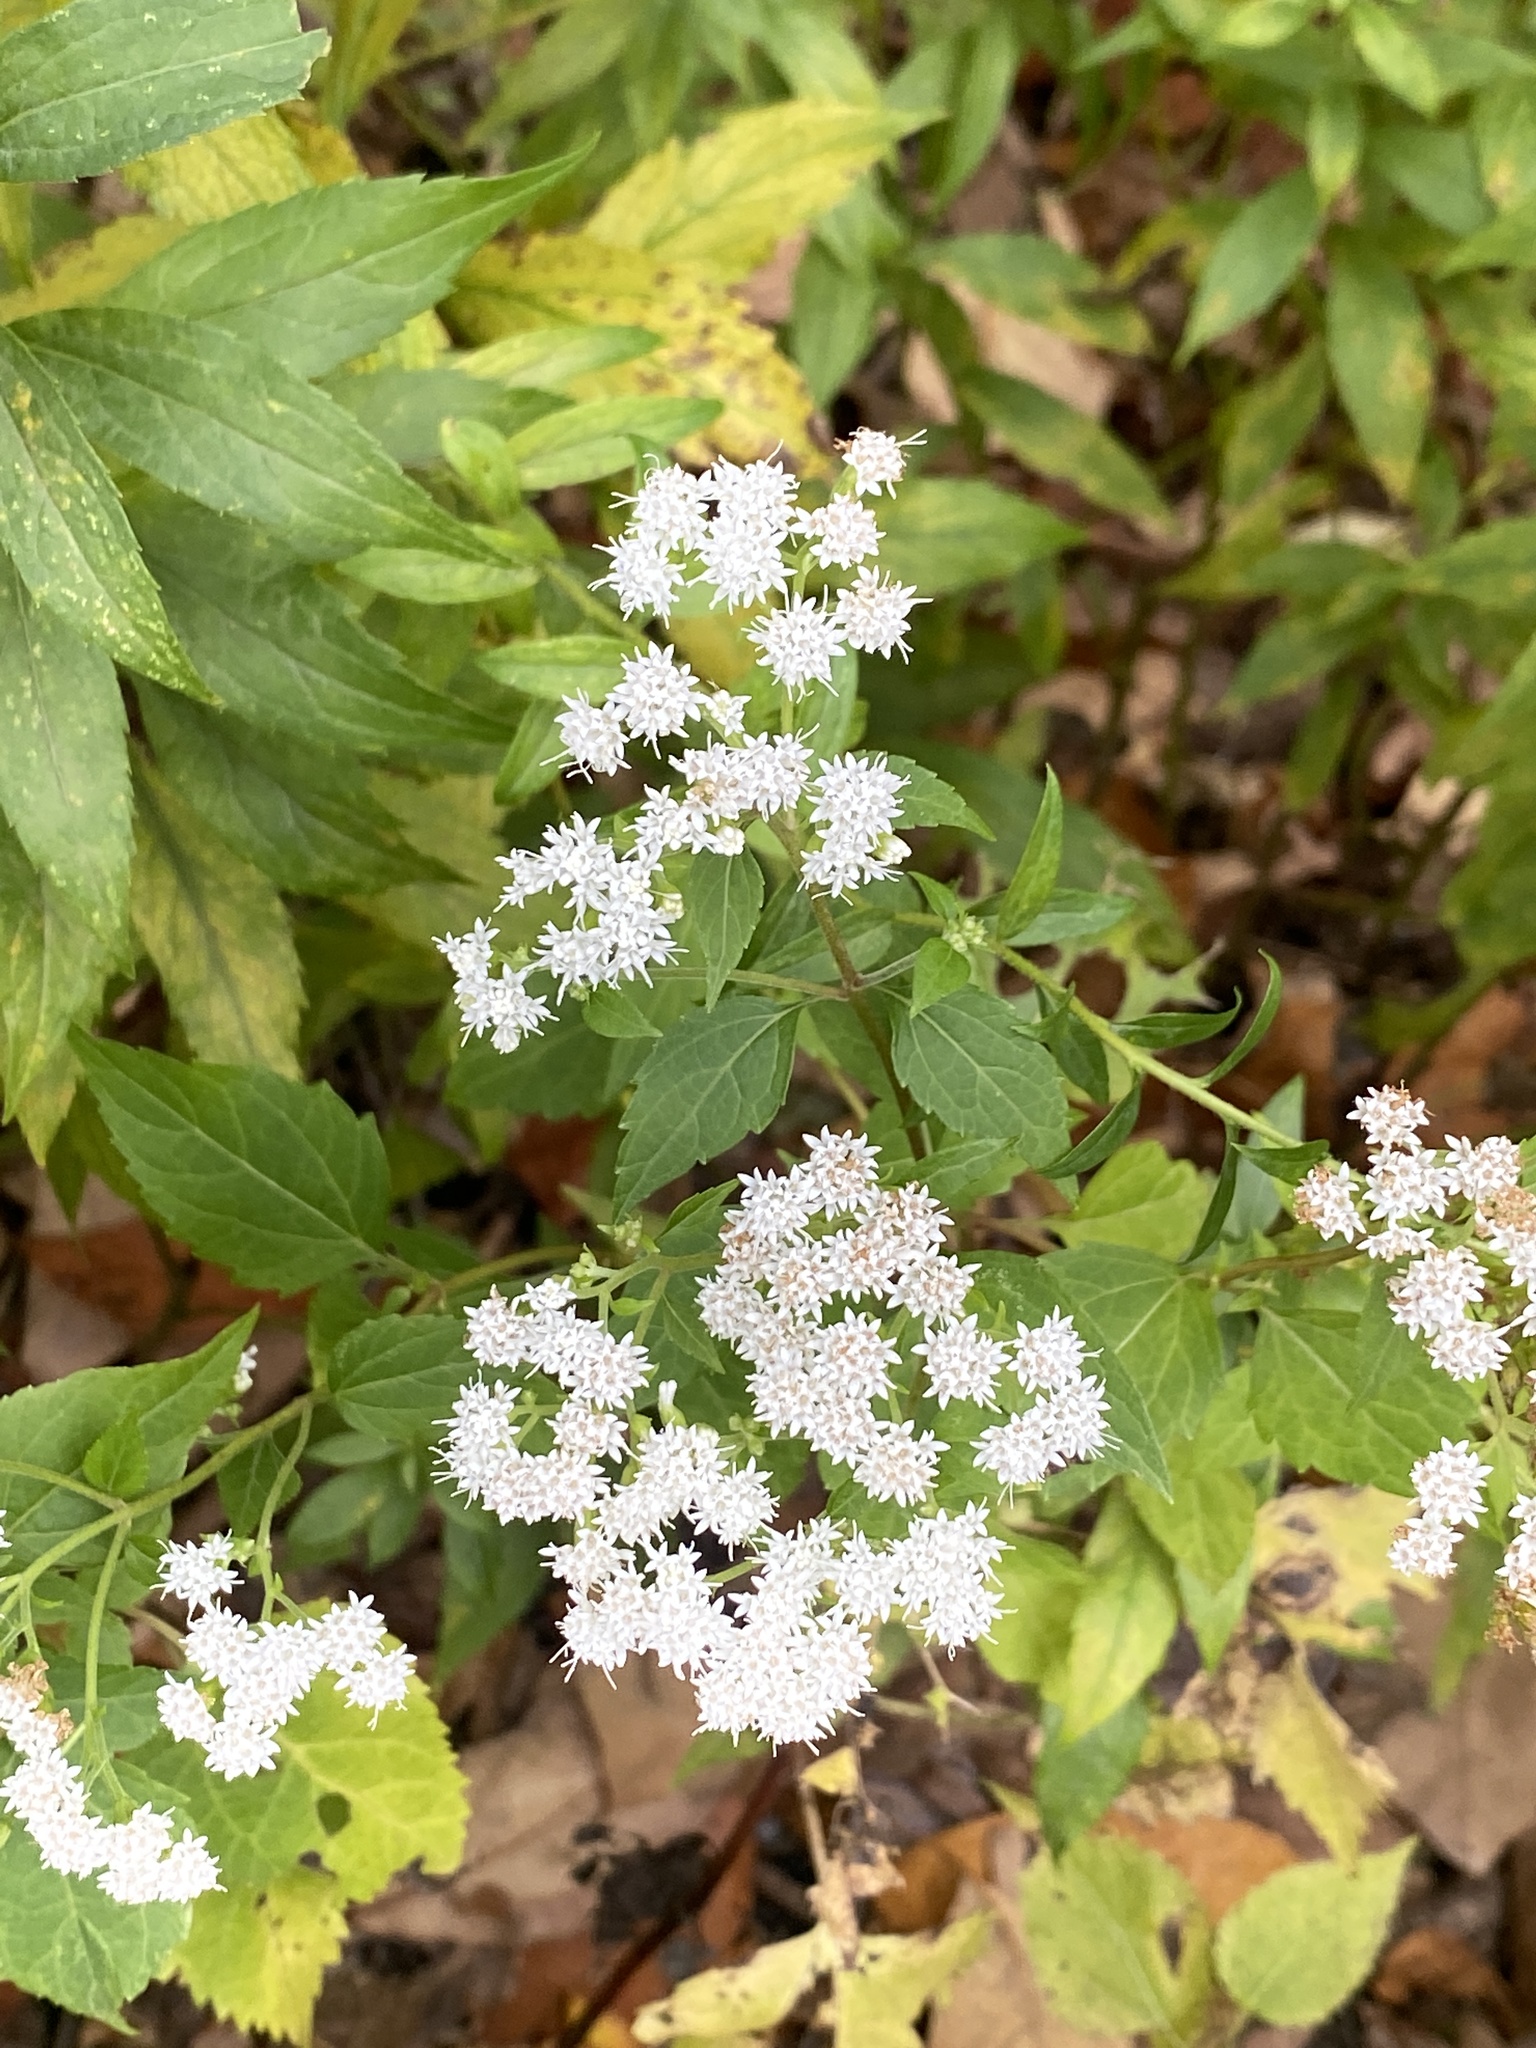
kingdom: Plantae
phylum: Tracheophyta
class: Magnoliopsida
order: Asterales
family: Asteraceae
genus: Ageratina
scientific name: Ageratina altissima
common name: White snakeroot
